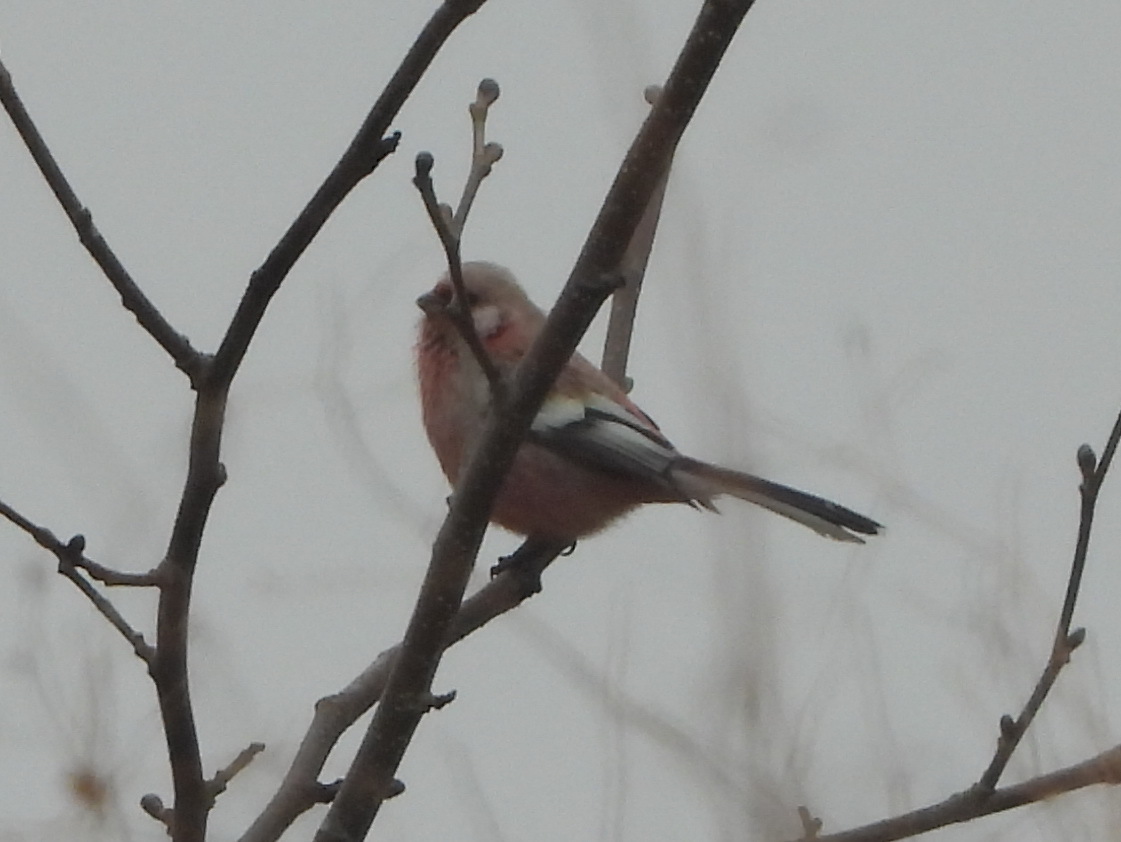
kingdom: Animalia
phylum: Chordata
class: Aves
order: Passeriformes
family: Fringillidae
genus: Carpodacus
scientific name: Carpodacus sibiricus
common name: Long-tailed rosefinch
